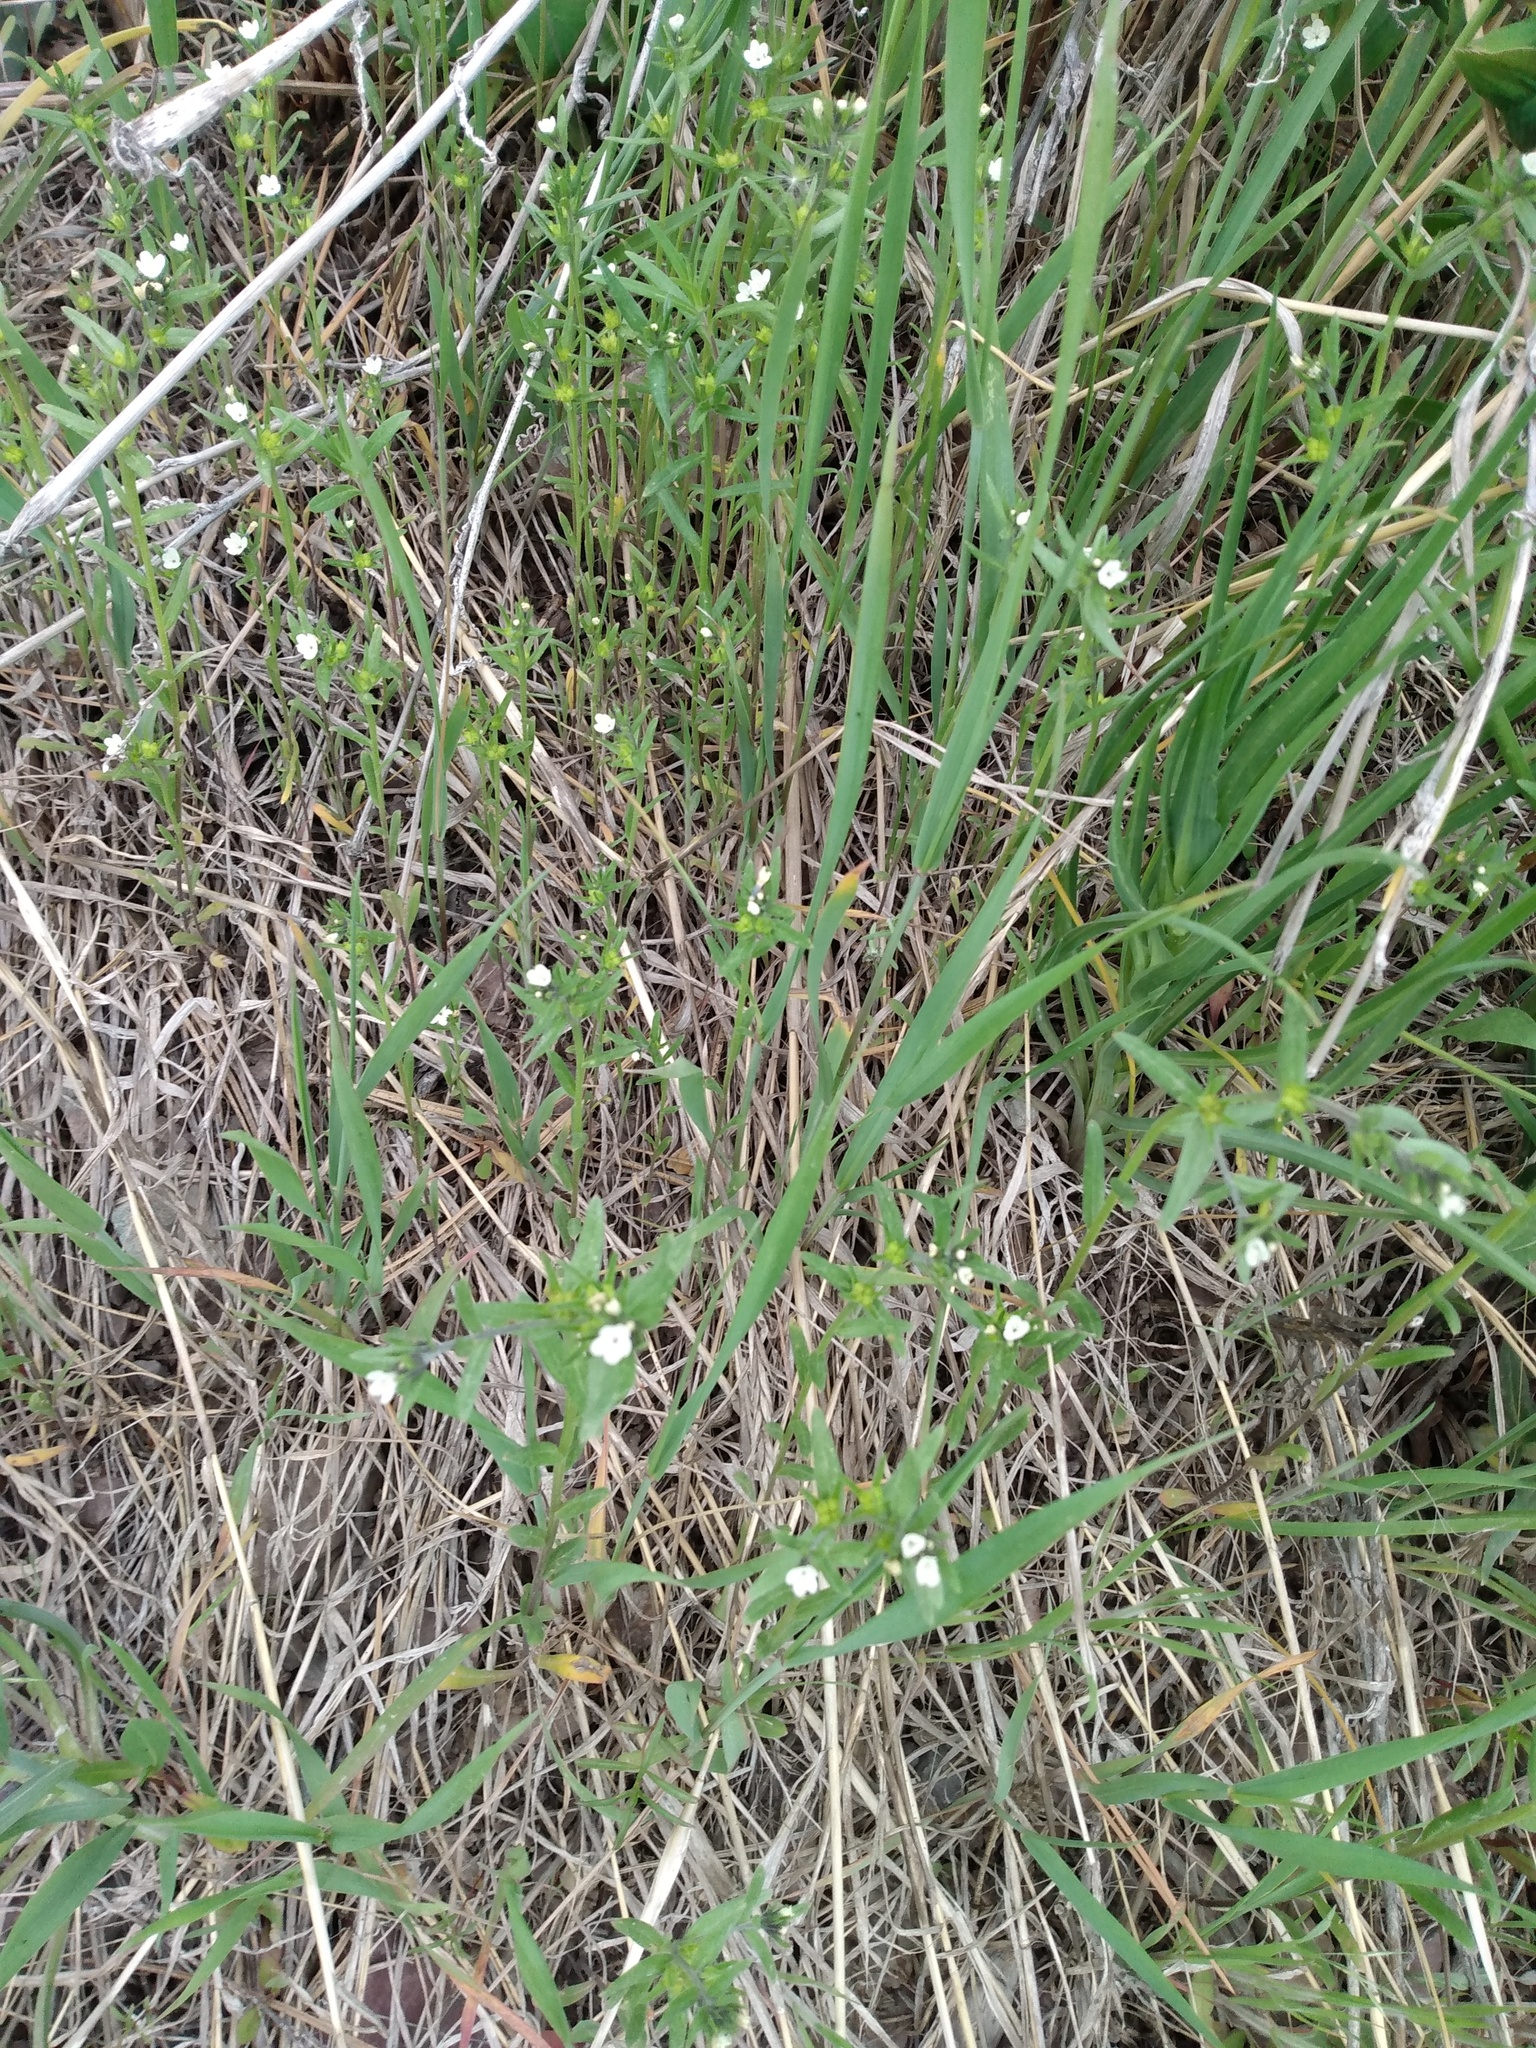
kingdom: Plantae
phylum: Tracheophyta
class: Magnoliopsida
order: Boraginales
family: Boraginaceae
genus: Buglossoides
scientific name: Buglossoides arvensis
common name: Corn gromwell
